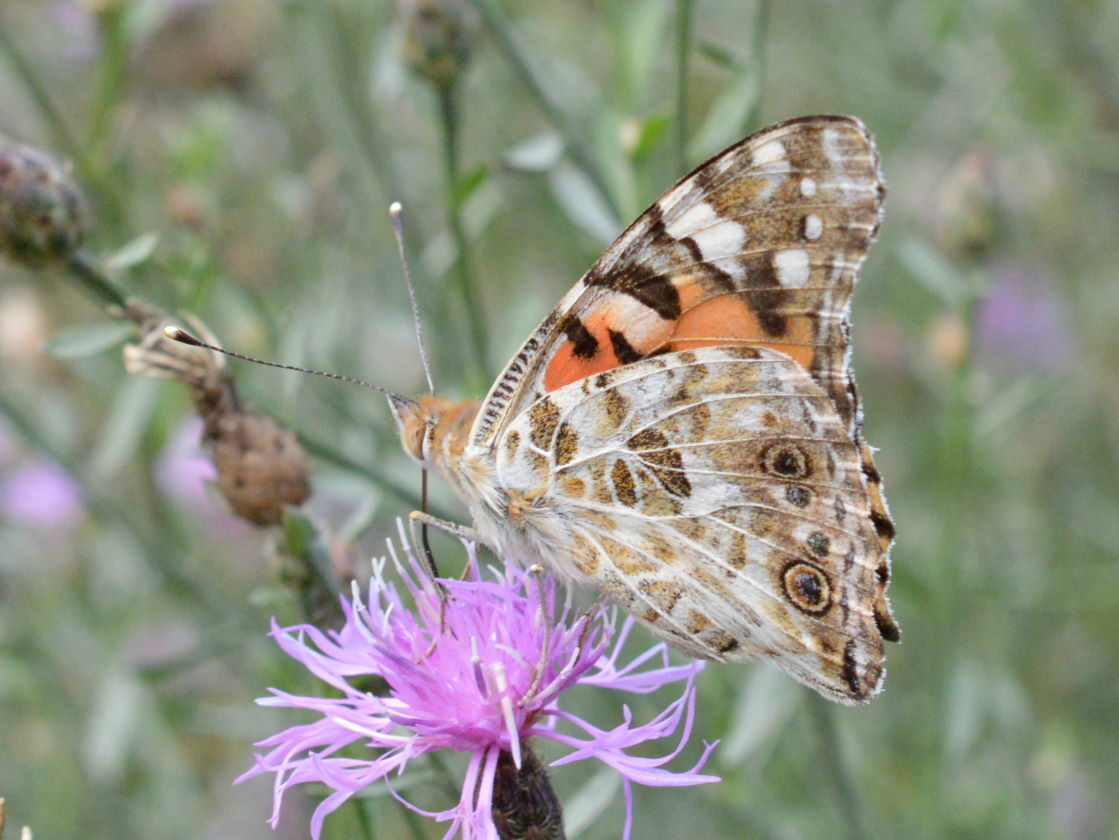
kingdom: Animalia
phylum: Arthropoda
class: Insecta
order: Lepidoptera
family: Nymphalidae
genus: Vanessa
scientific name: Vanessa cardui
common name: Painted lady
